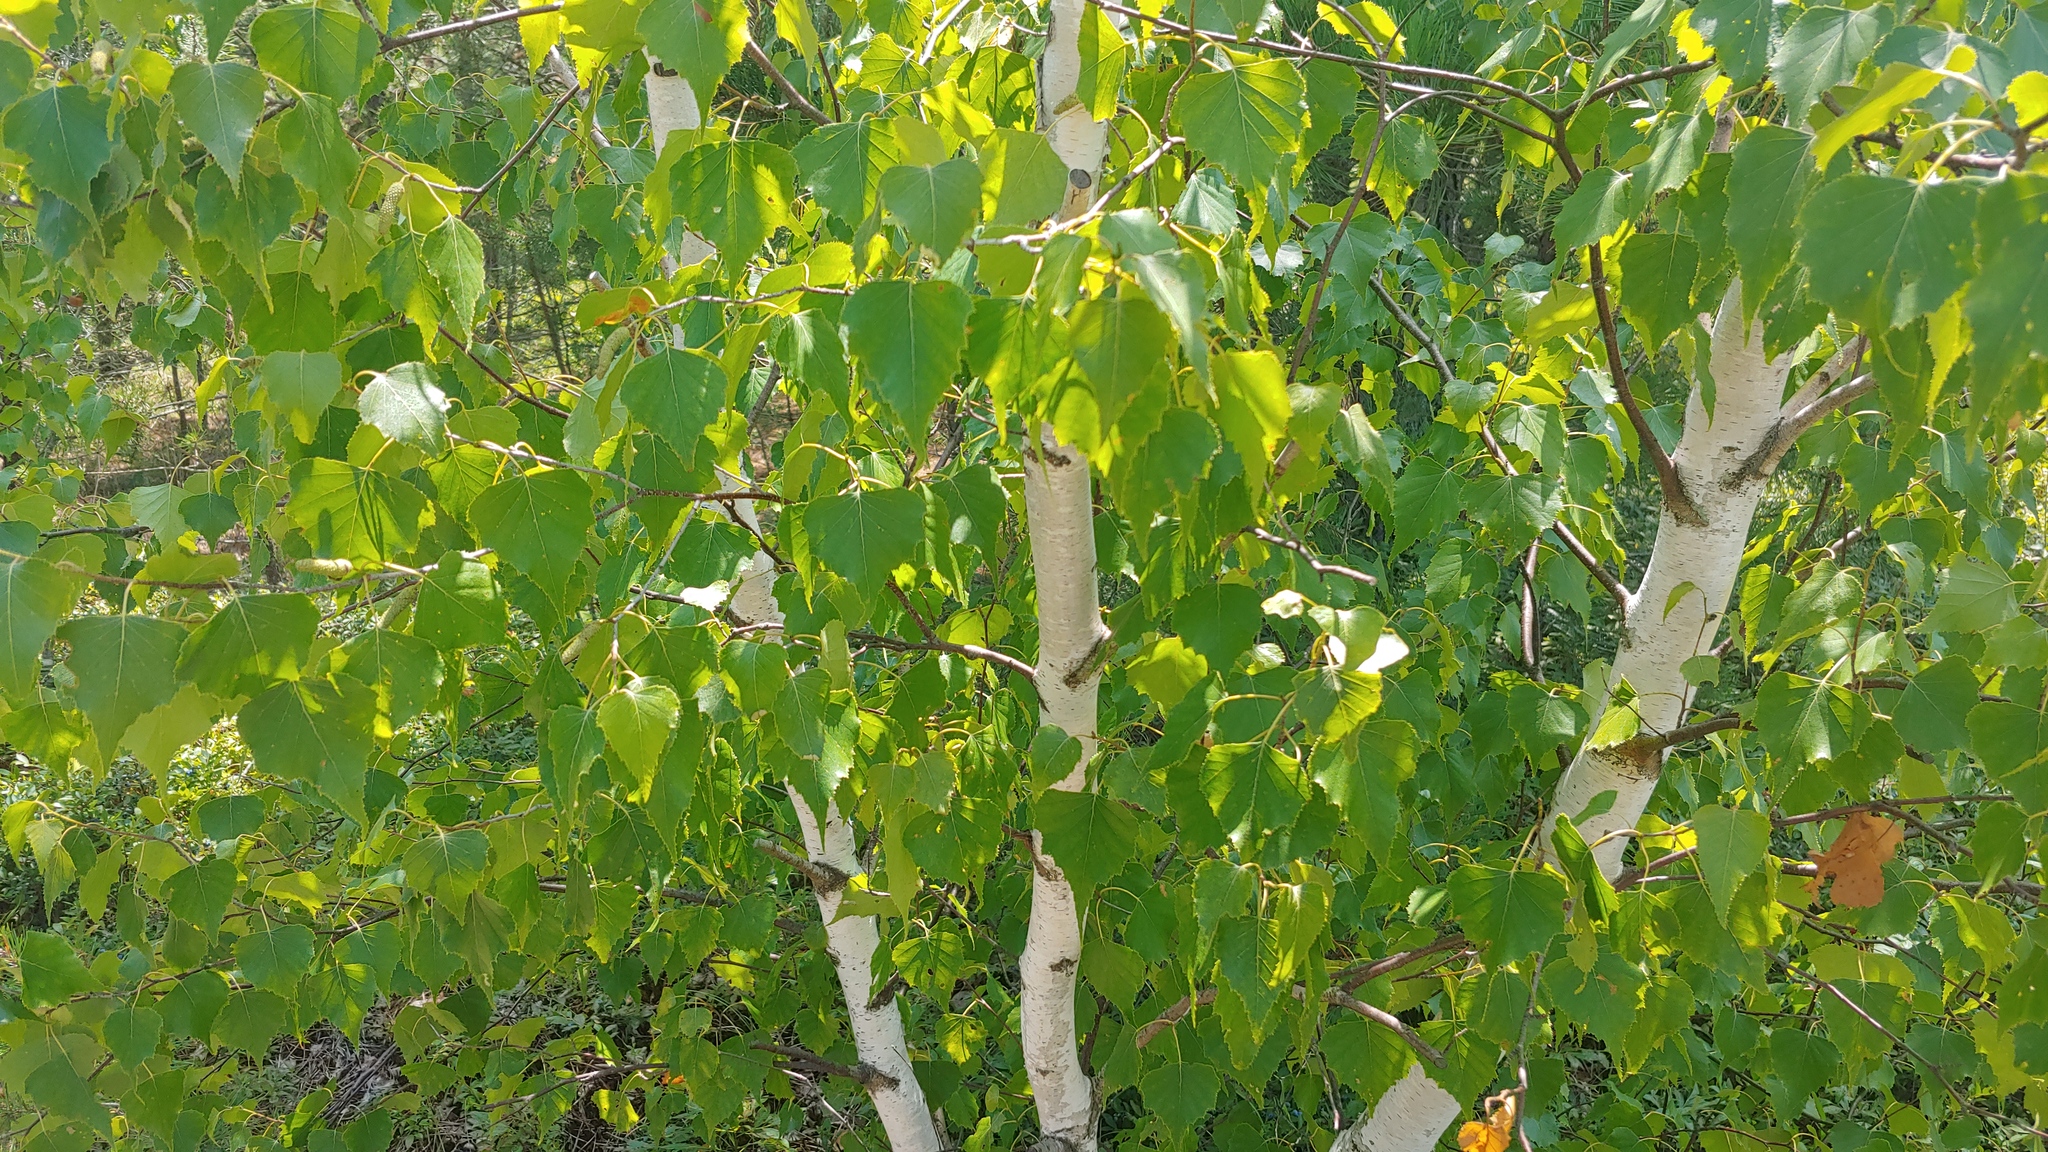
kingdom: Plantae
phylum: Tracheophyta
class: Magnoliopsida
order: Fagales
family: Betulaceae
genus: Betula
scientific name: Betula populifolia
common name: Fire birch
